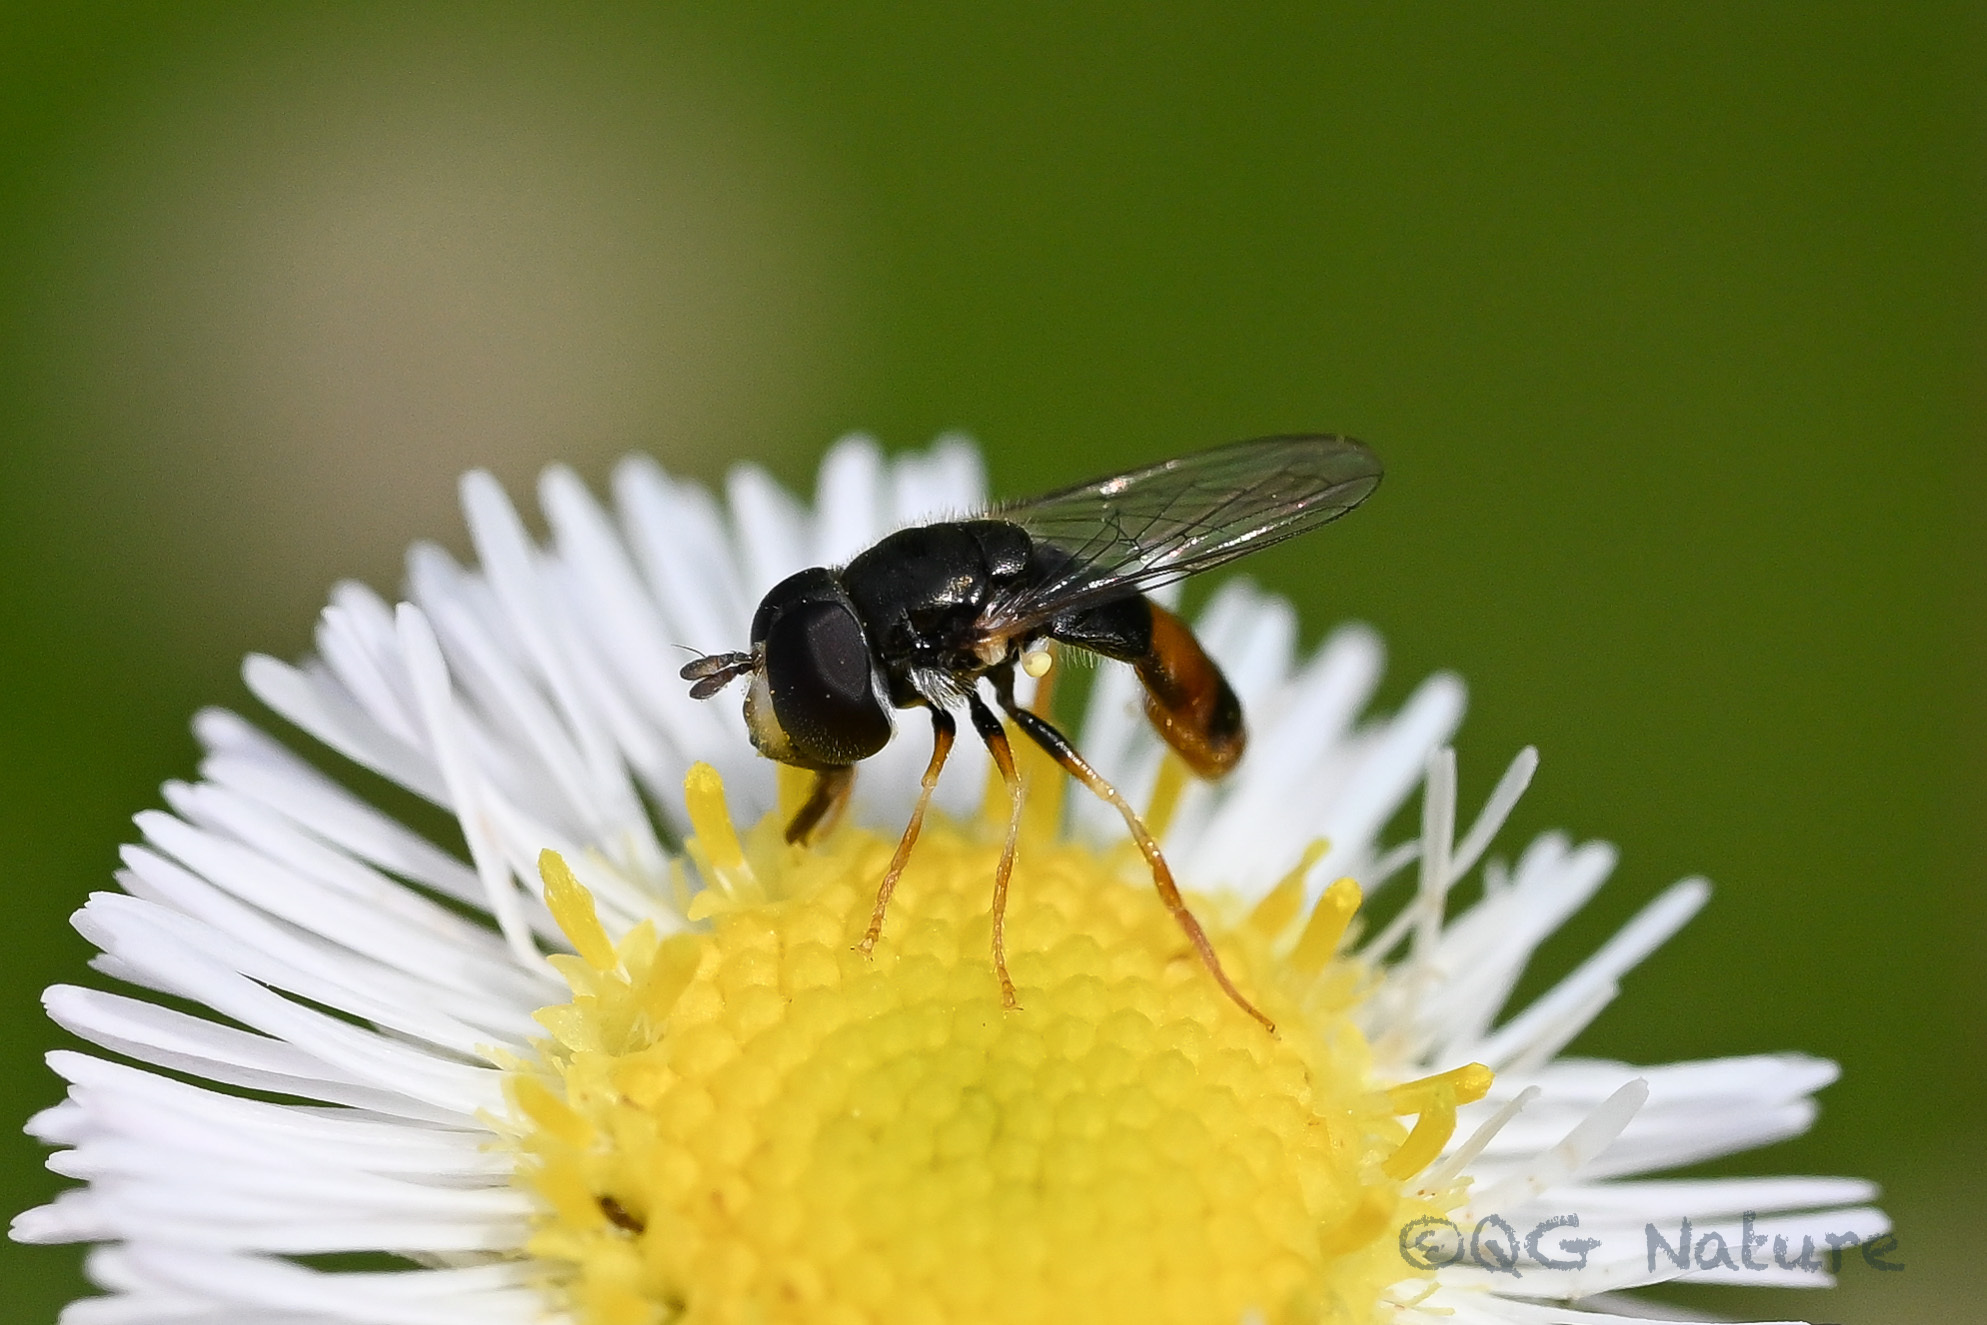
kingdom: Animalia
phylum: Arthropoda
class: Insecta
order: Diptera
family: Syrphidae
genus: Paragus
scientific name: Paragus haemorrhous
